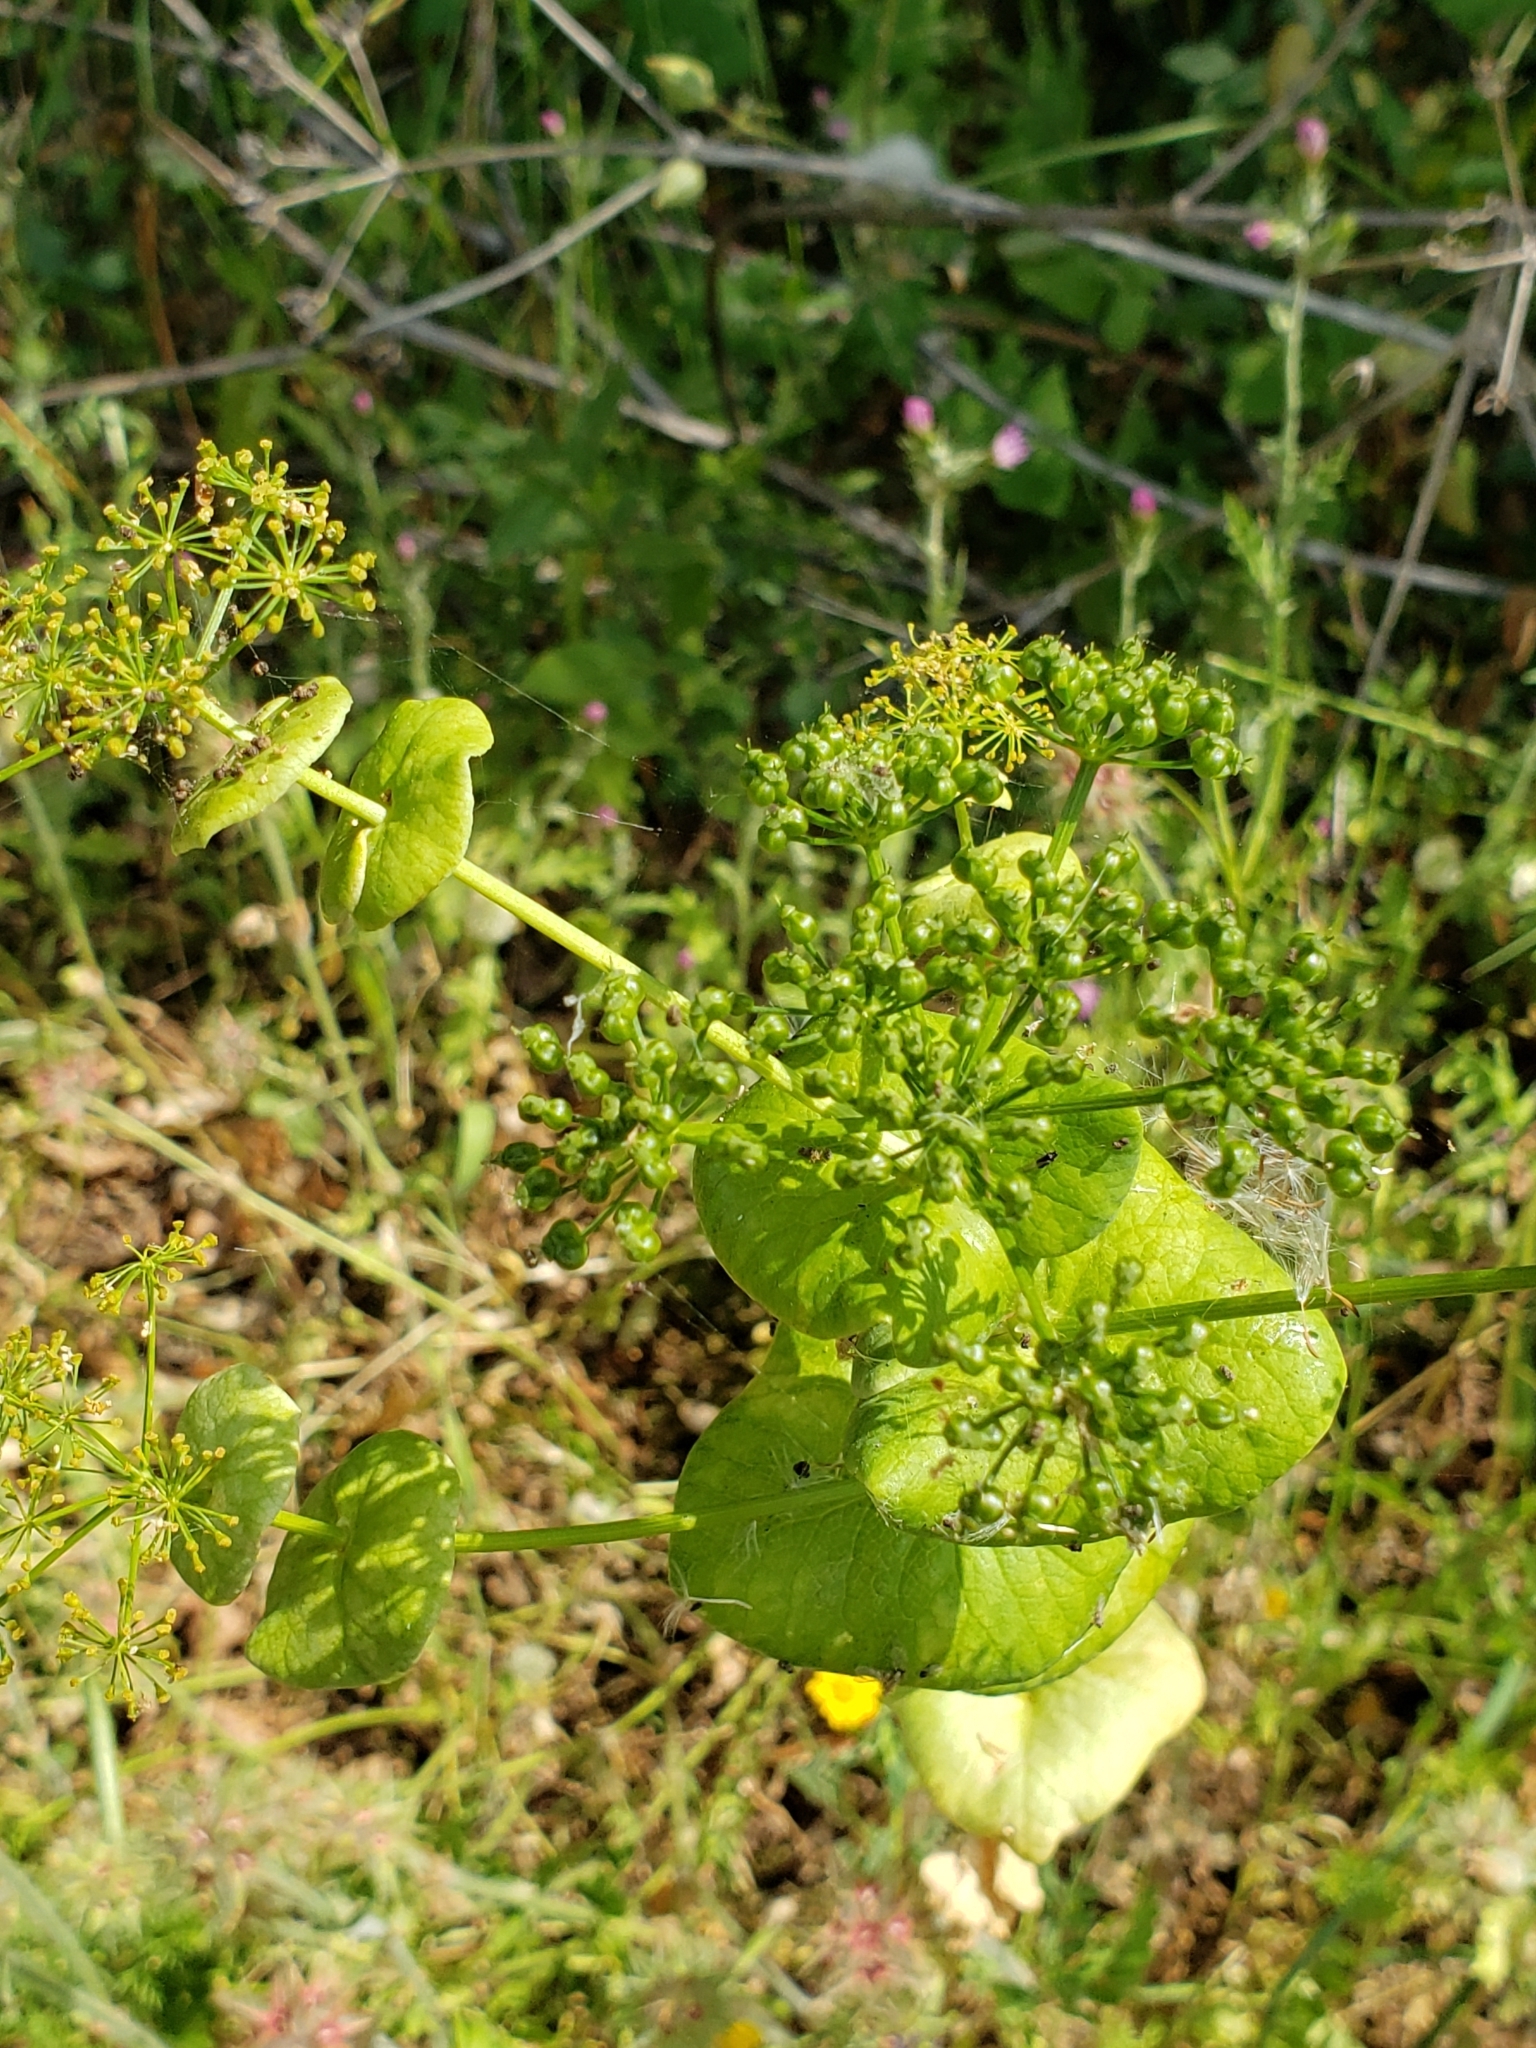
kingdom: Plantae
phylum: Tracheophyta
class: Magnoliopsida
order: Apiales
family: Apiaceae
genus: Smyrnium
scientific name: Smyrnium perfoliatum
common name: Perfoliate alexanders
